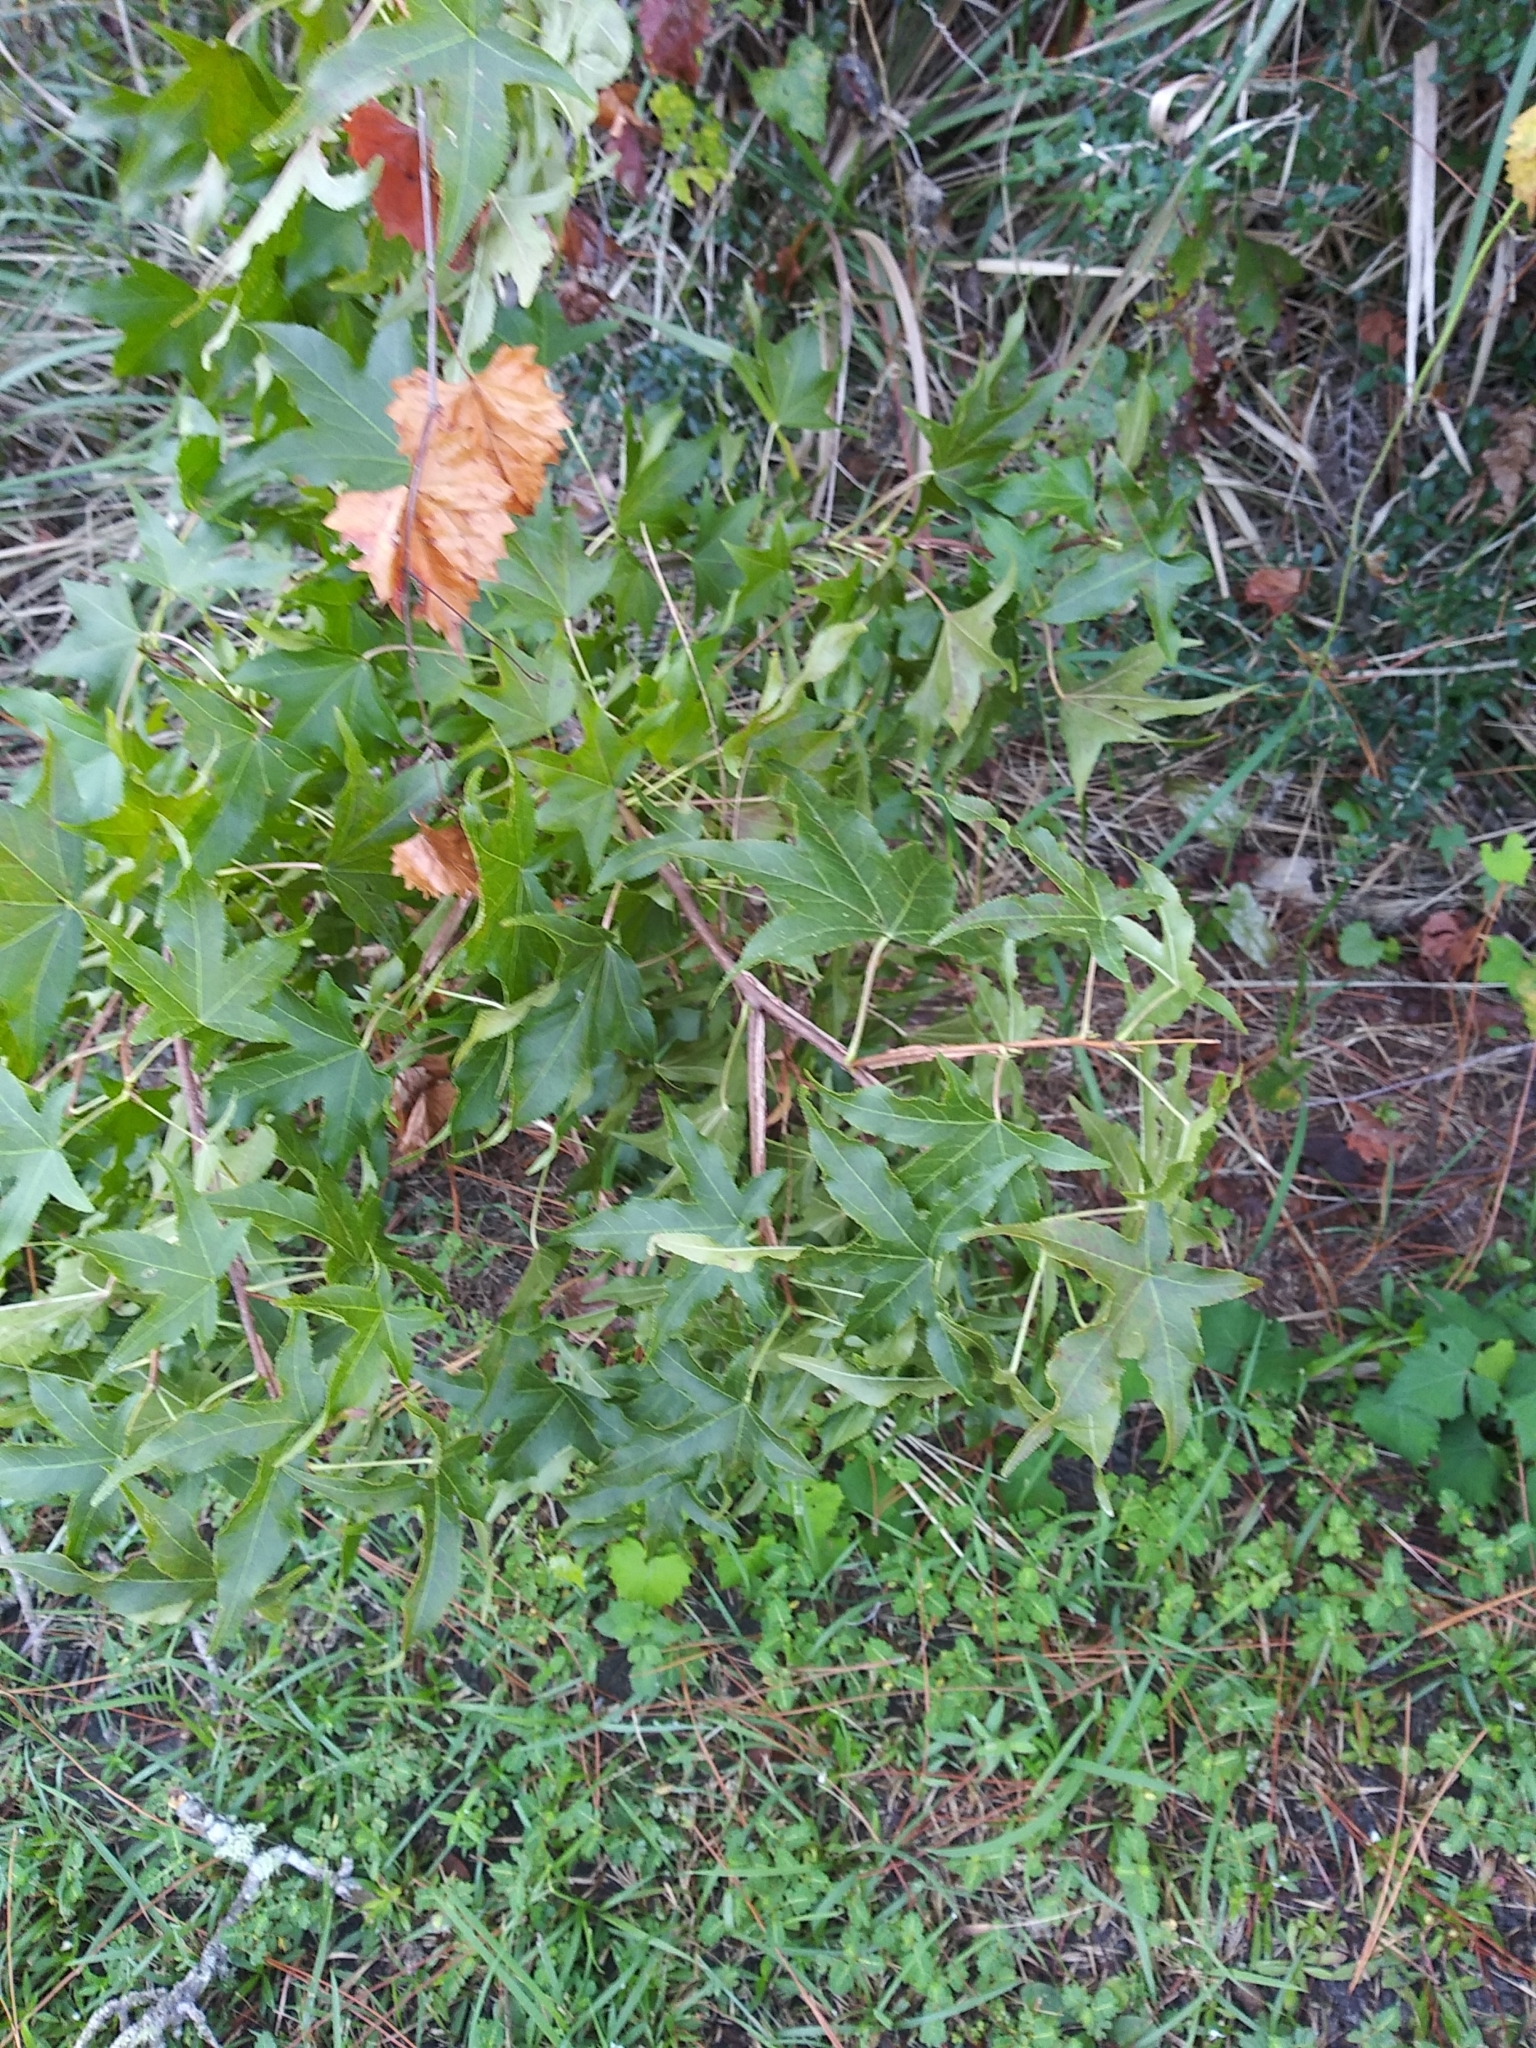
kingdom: Plantae
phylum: Tracheophyta
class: Magnoliopsida
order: Saxifragales
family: Altingiaceae
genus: Liquidambar
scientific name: Liquidambar styraciflua
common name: Sweet gum
